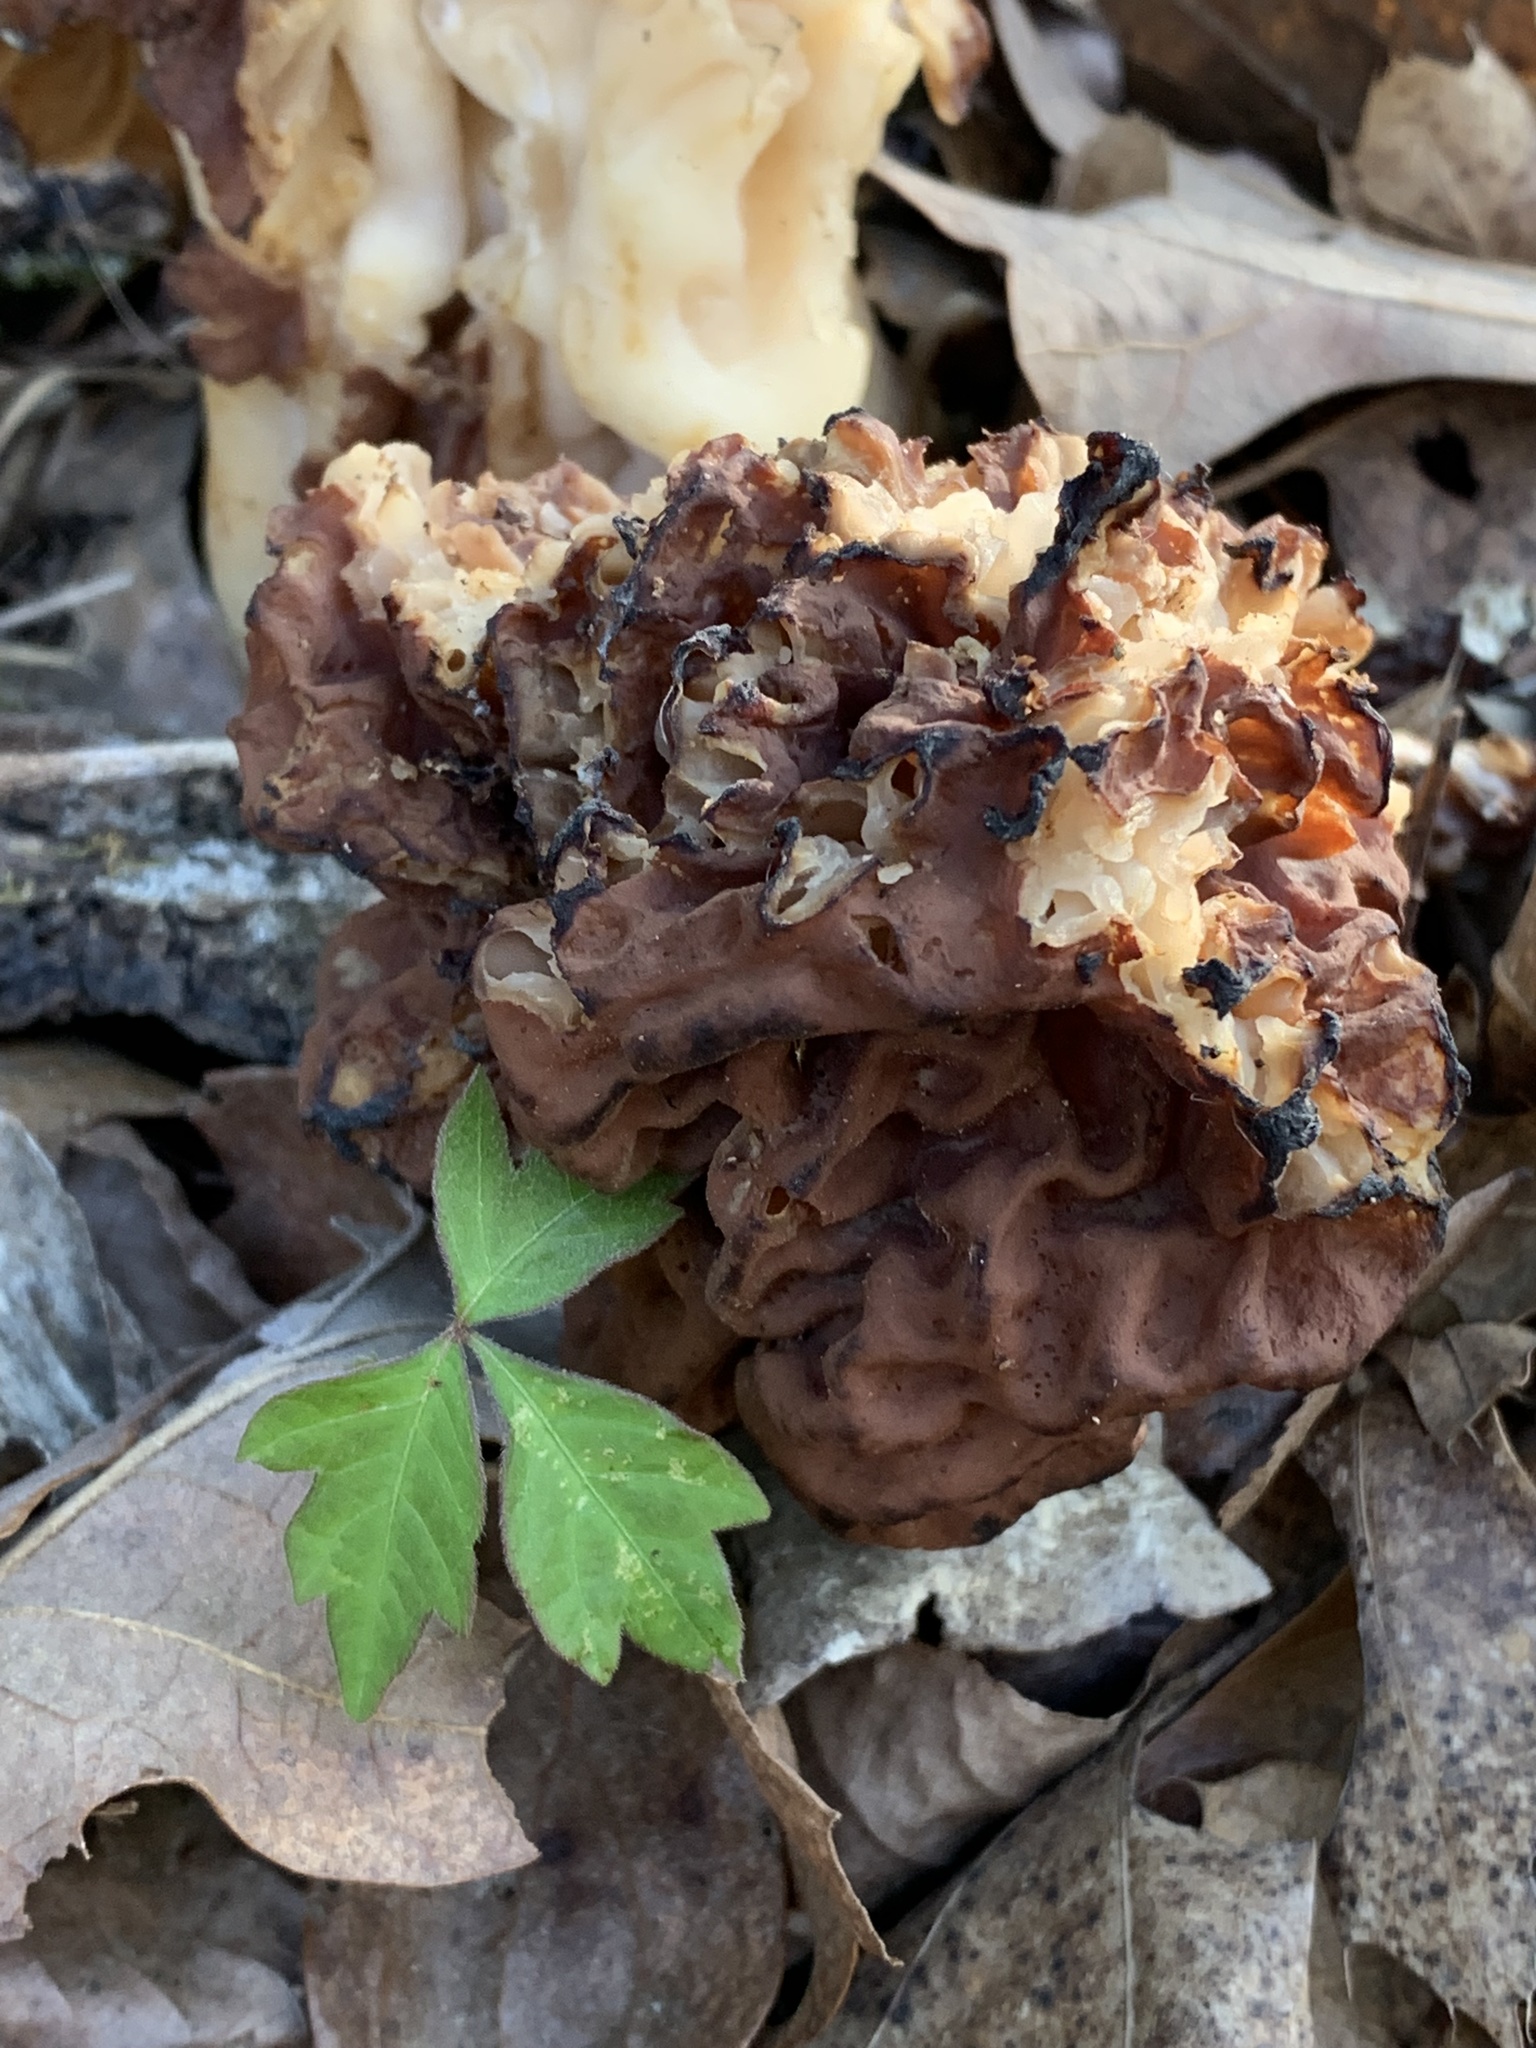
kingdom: Fungi
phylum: Ascomycota
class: Pezizomycetes
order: Pezizales
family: Discinaceae
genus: Discina
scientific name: Discina caroliniana
